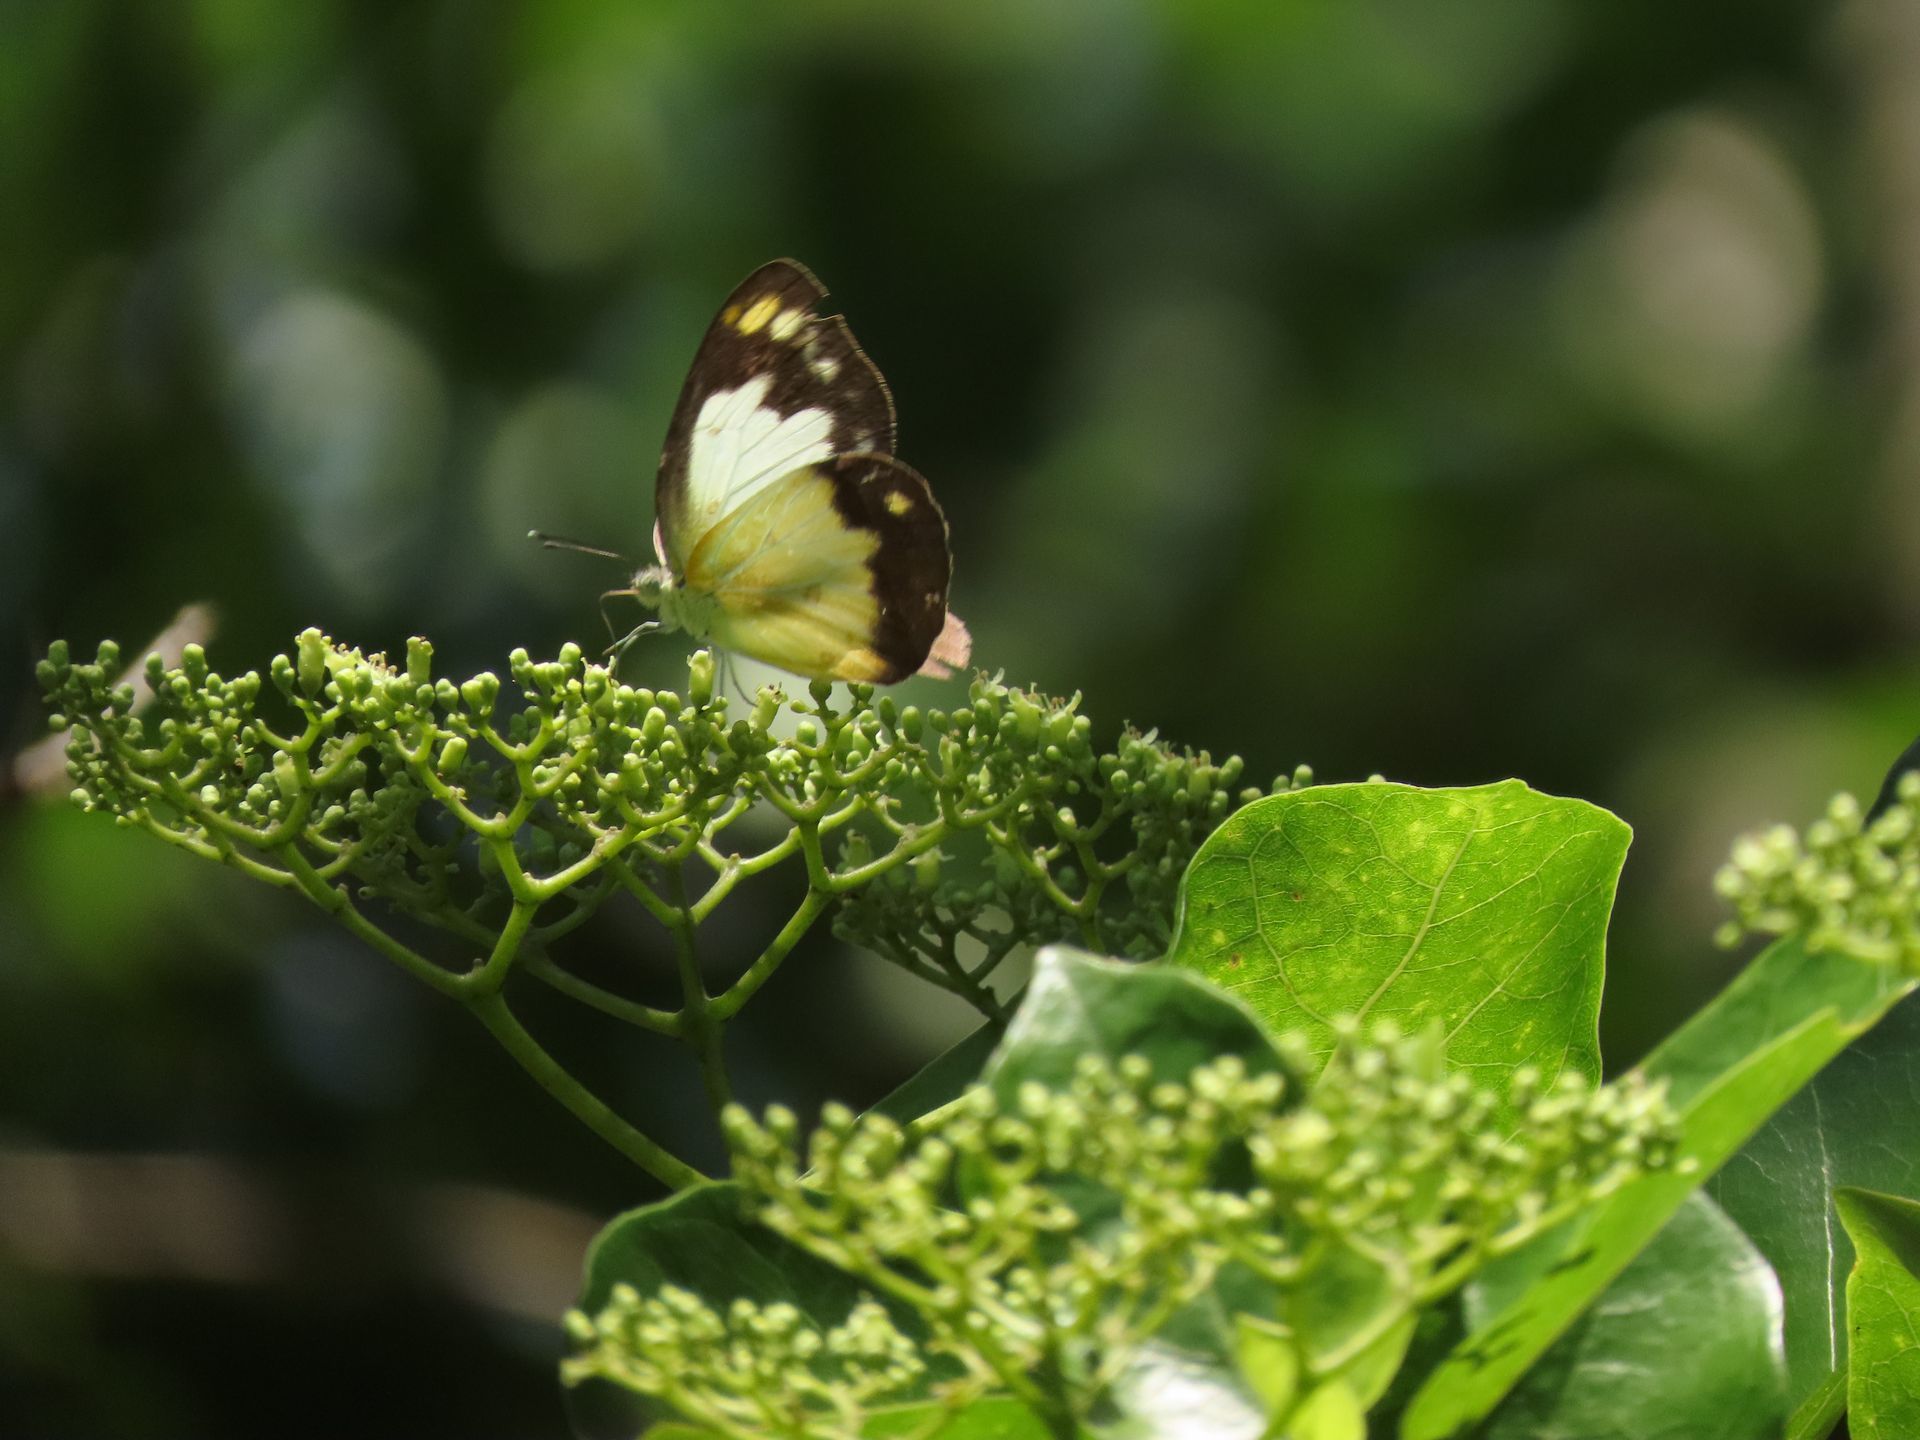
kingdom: Animalia
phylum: Arthropoda
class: Insecta
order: Lepidoptera
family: Pieridae
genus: Cepora
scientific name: Cepora perimale
